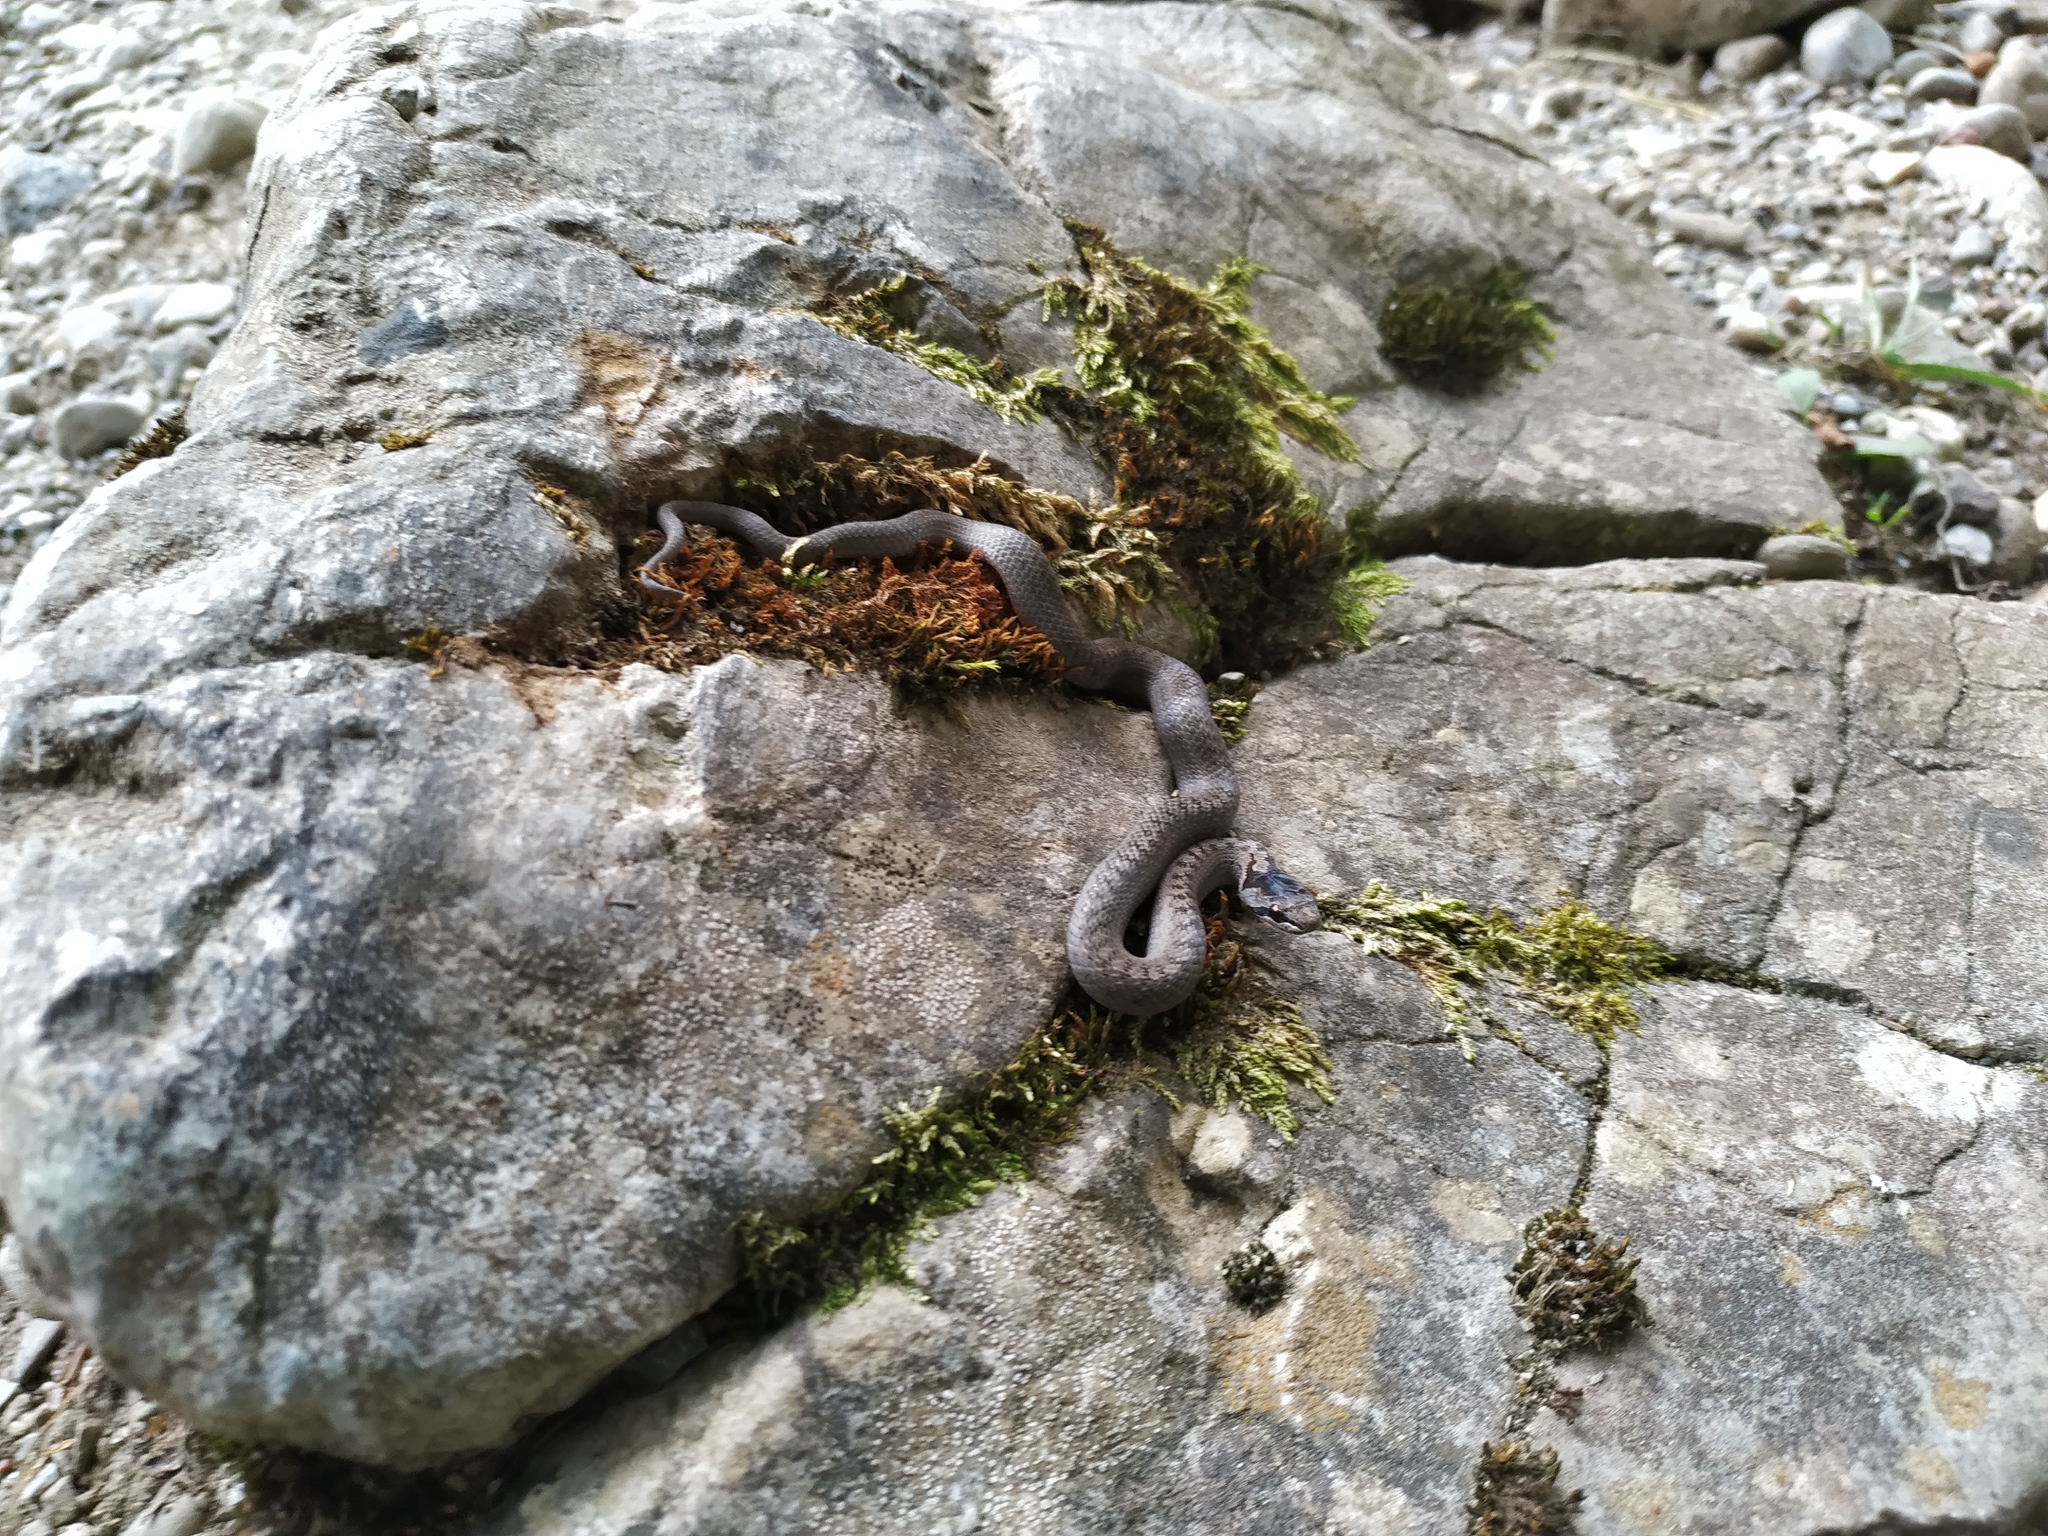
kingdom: Animalia
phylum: Chordata
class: Squamata
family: Colubridae
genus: Coronella
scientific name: Coronella austriaca
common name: Smooth snake
